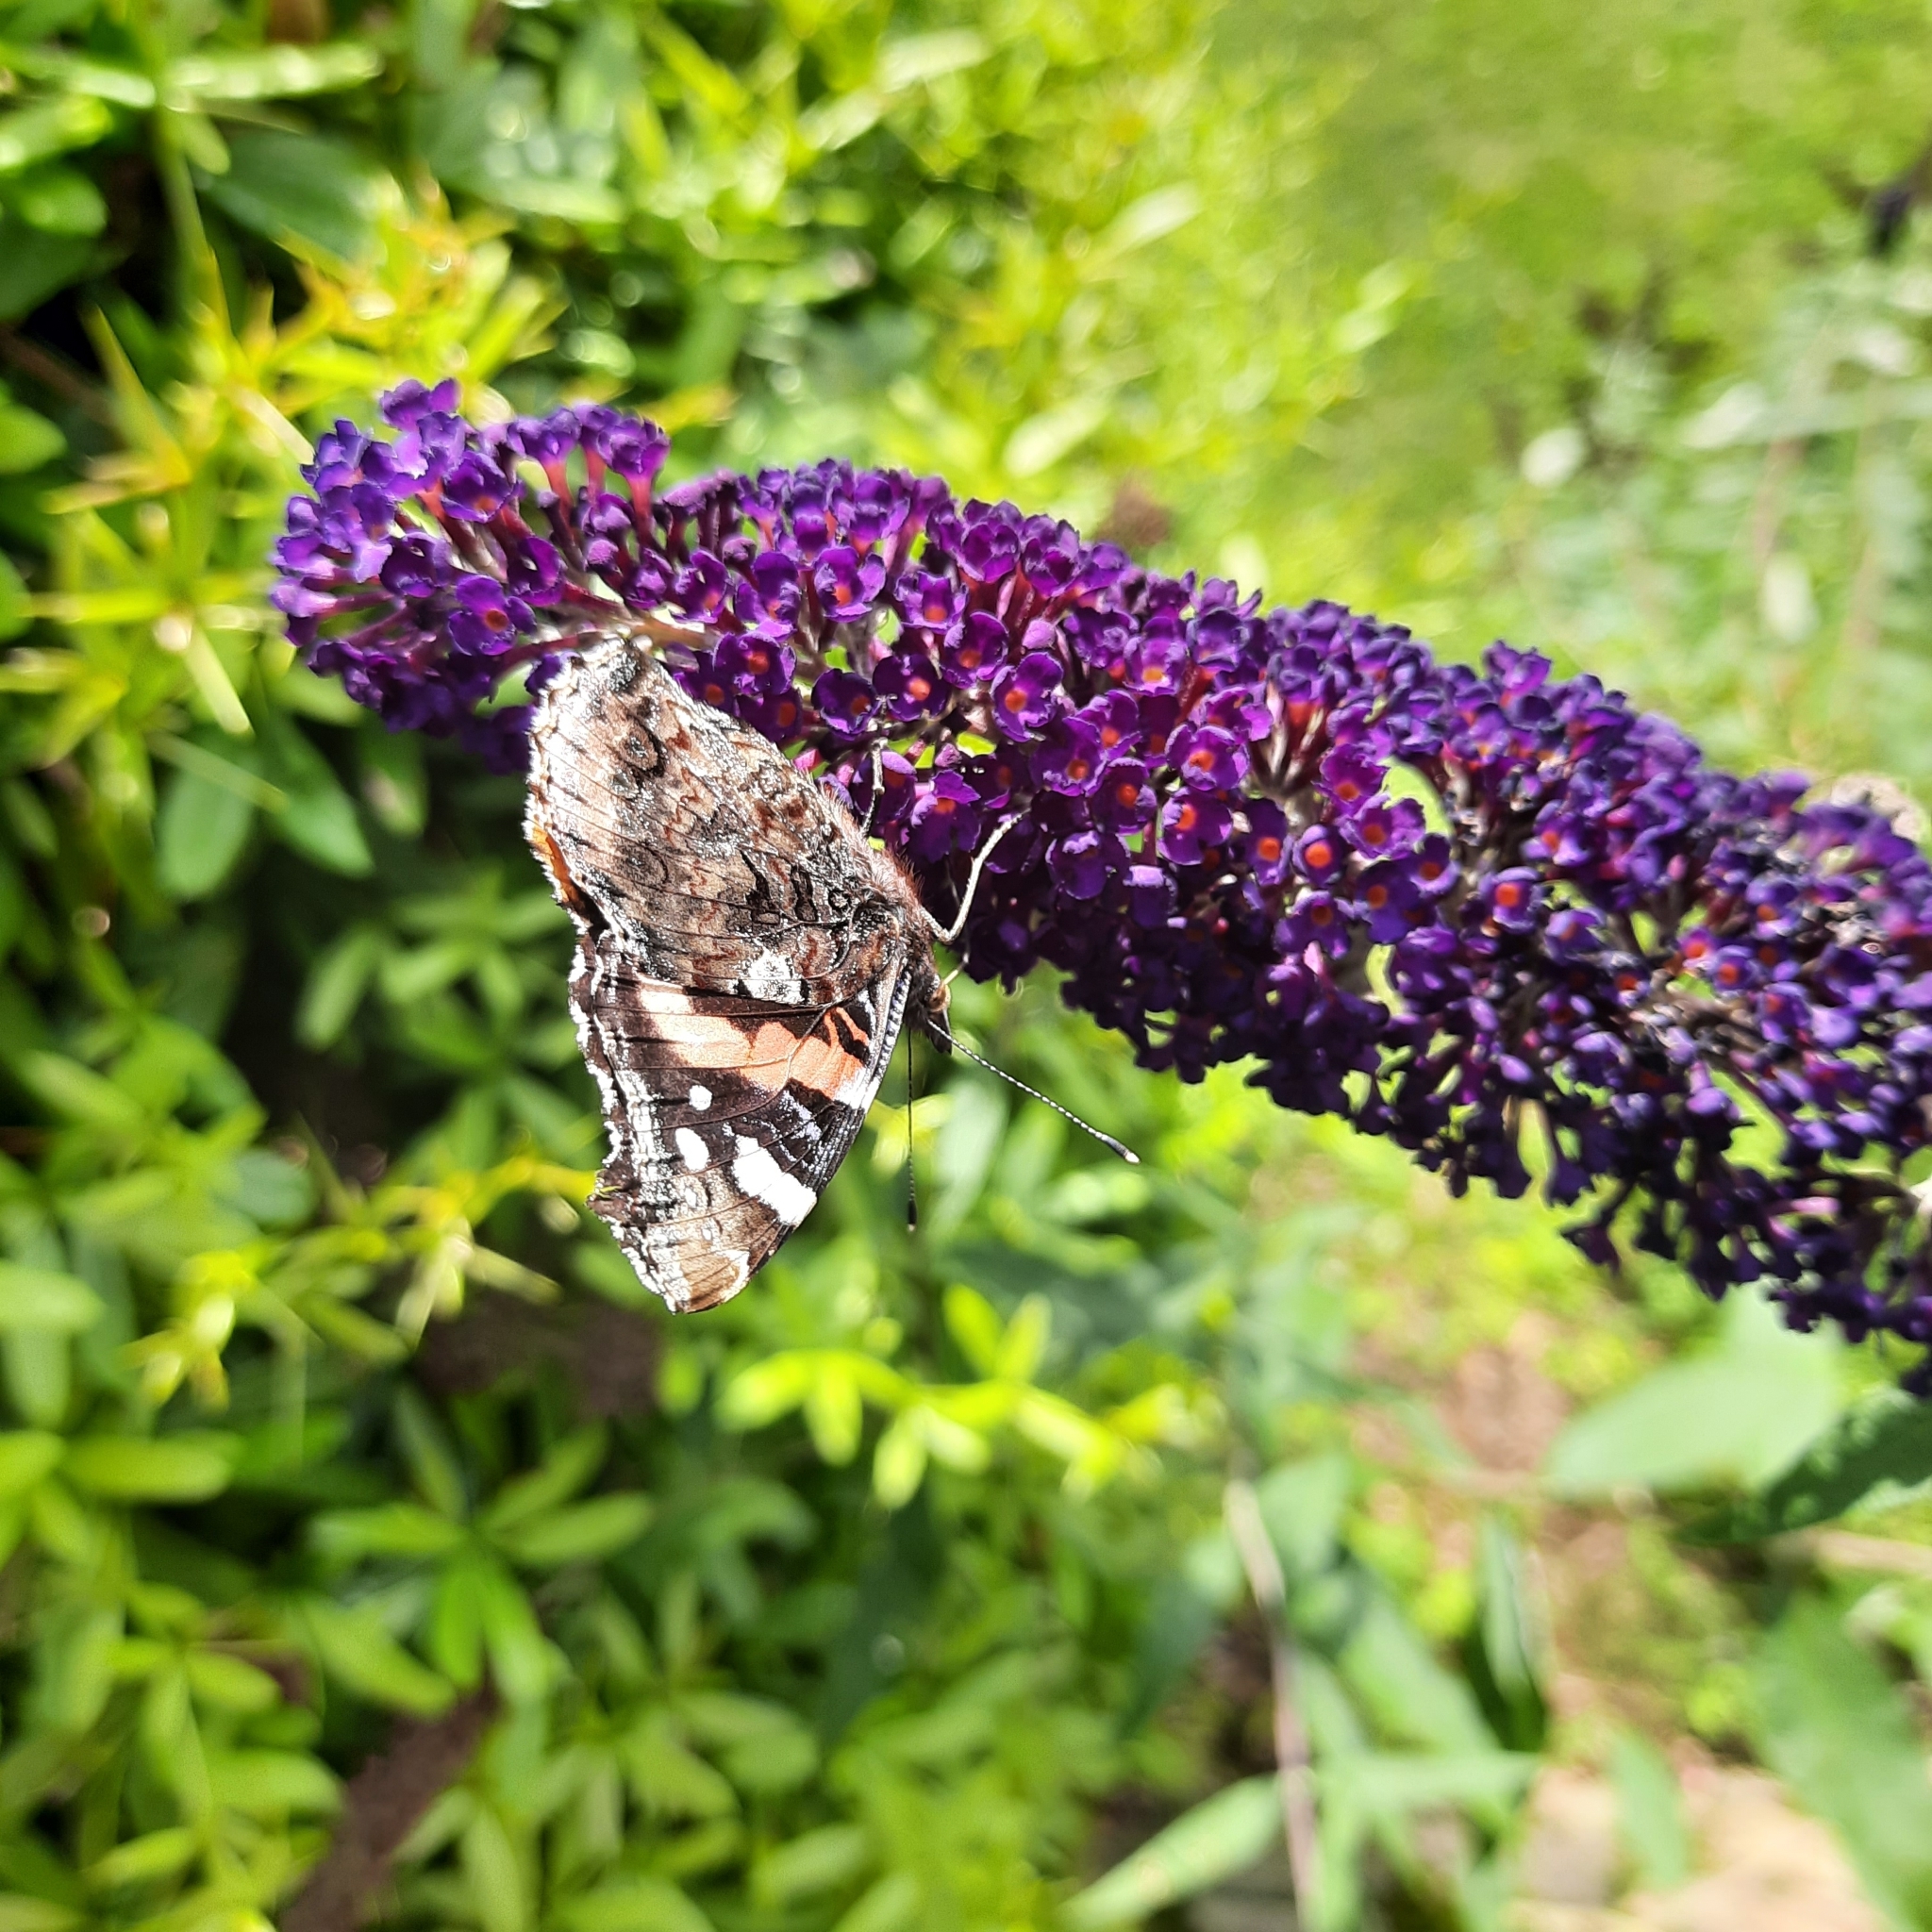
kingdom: Animalia
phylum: Arthropoda
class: Insecta
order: Lepidoptera
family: Nymphalidae
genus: Vanessa
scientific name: Vanessa atalanta
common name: Red admiral
